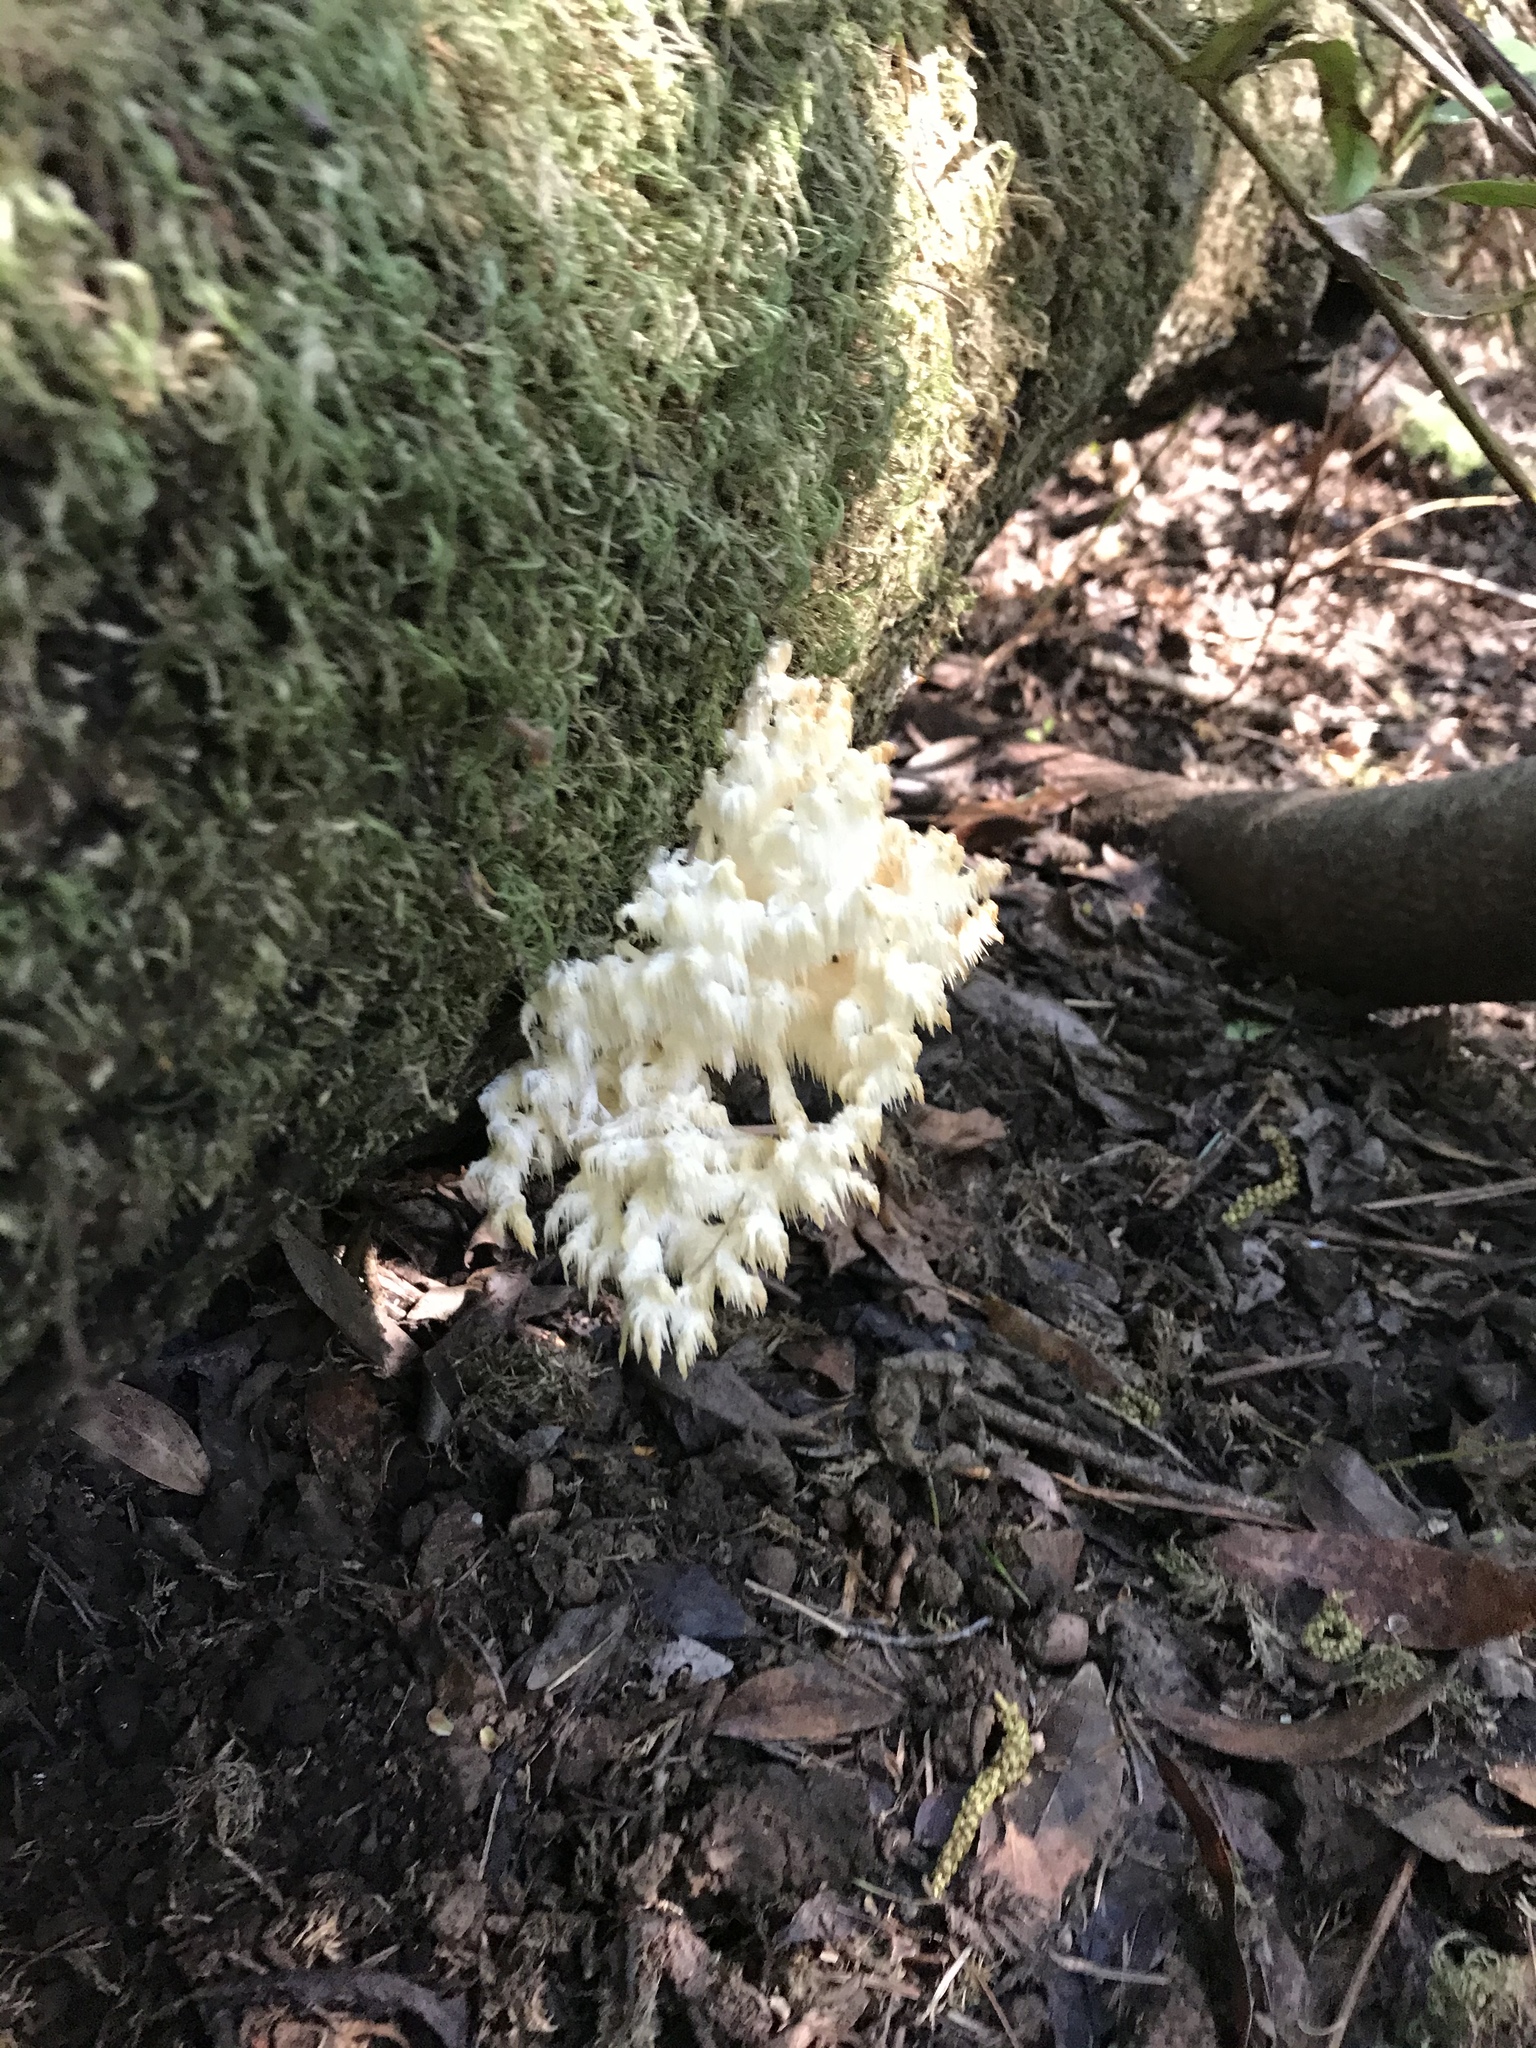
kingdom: Fungi
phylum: Basidiomycota
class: Agaricomycetes
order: Russulales
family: Hericiaceae
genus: Hericium
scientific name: Hericium coralloides
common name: Coral tooth
